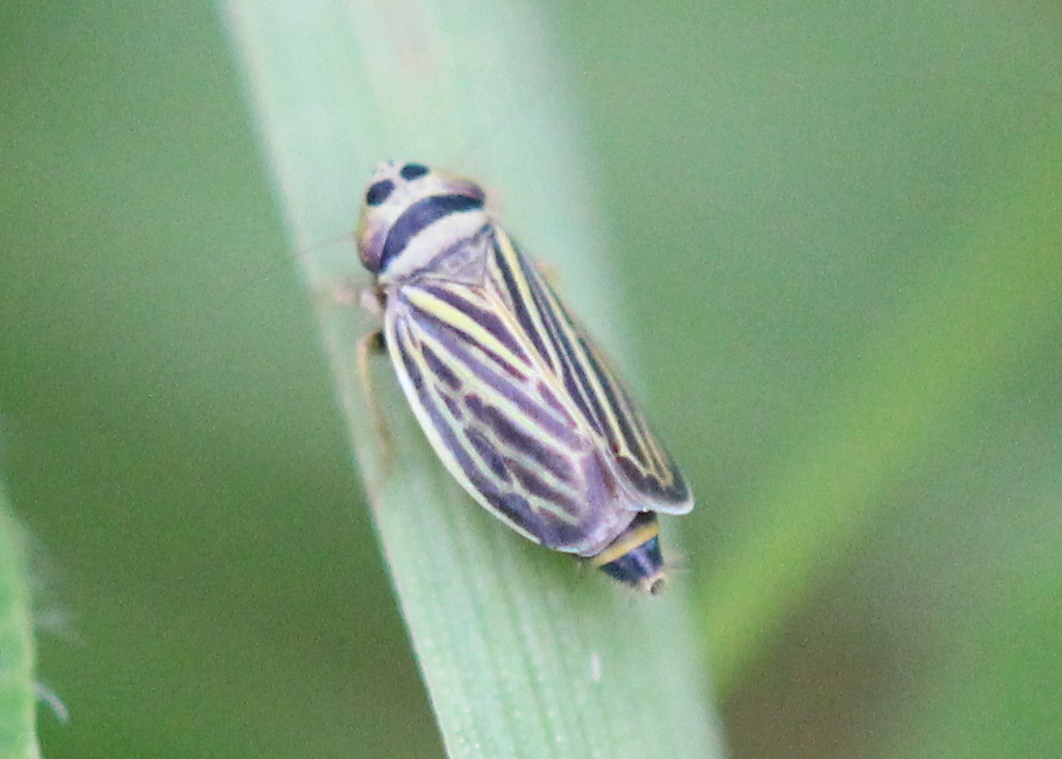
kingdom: Animalia
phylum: Arthropoda
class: Insecta
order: Hemiptera
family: Cicadellidae
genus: Amblysellus
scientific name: Amblysellus curtisii
